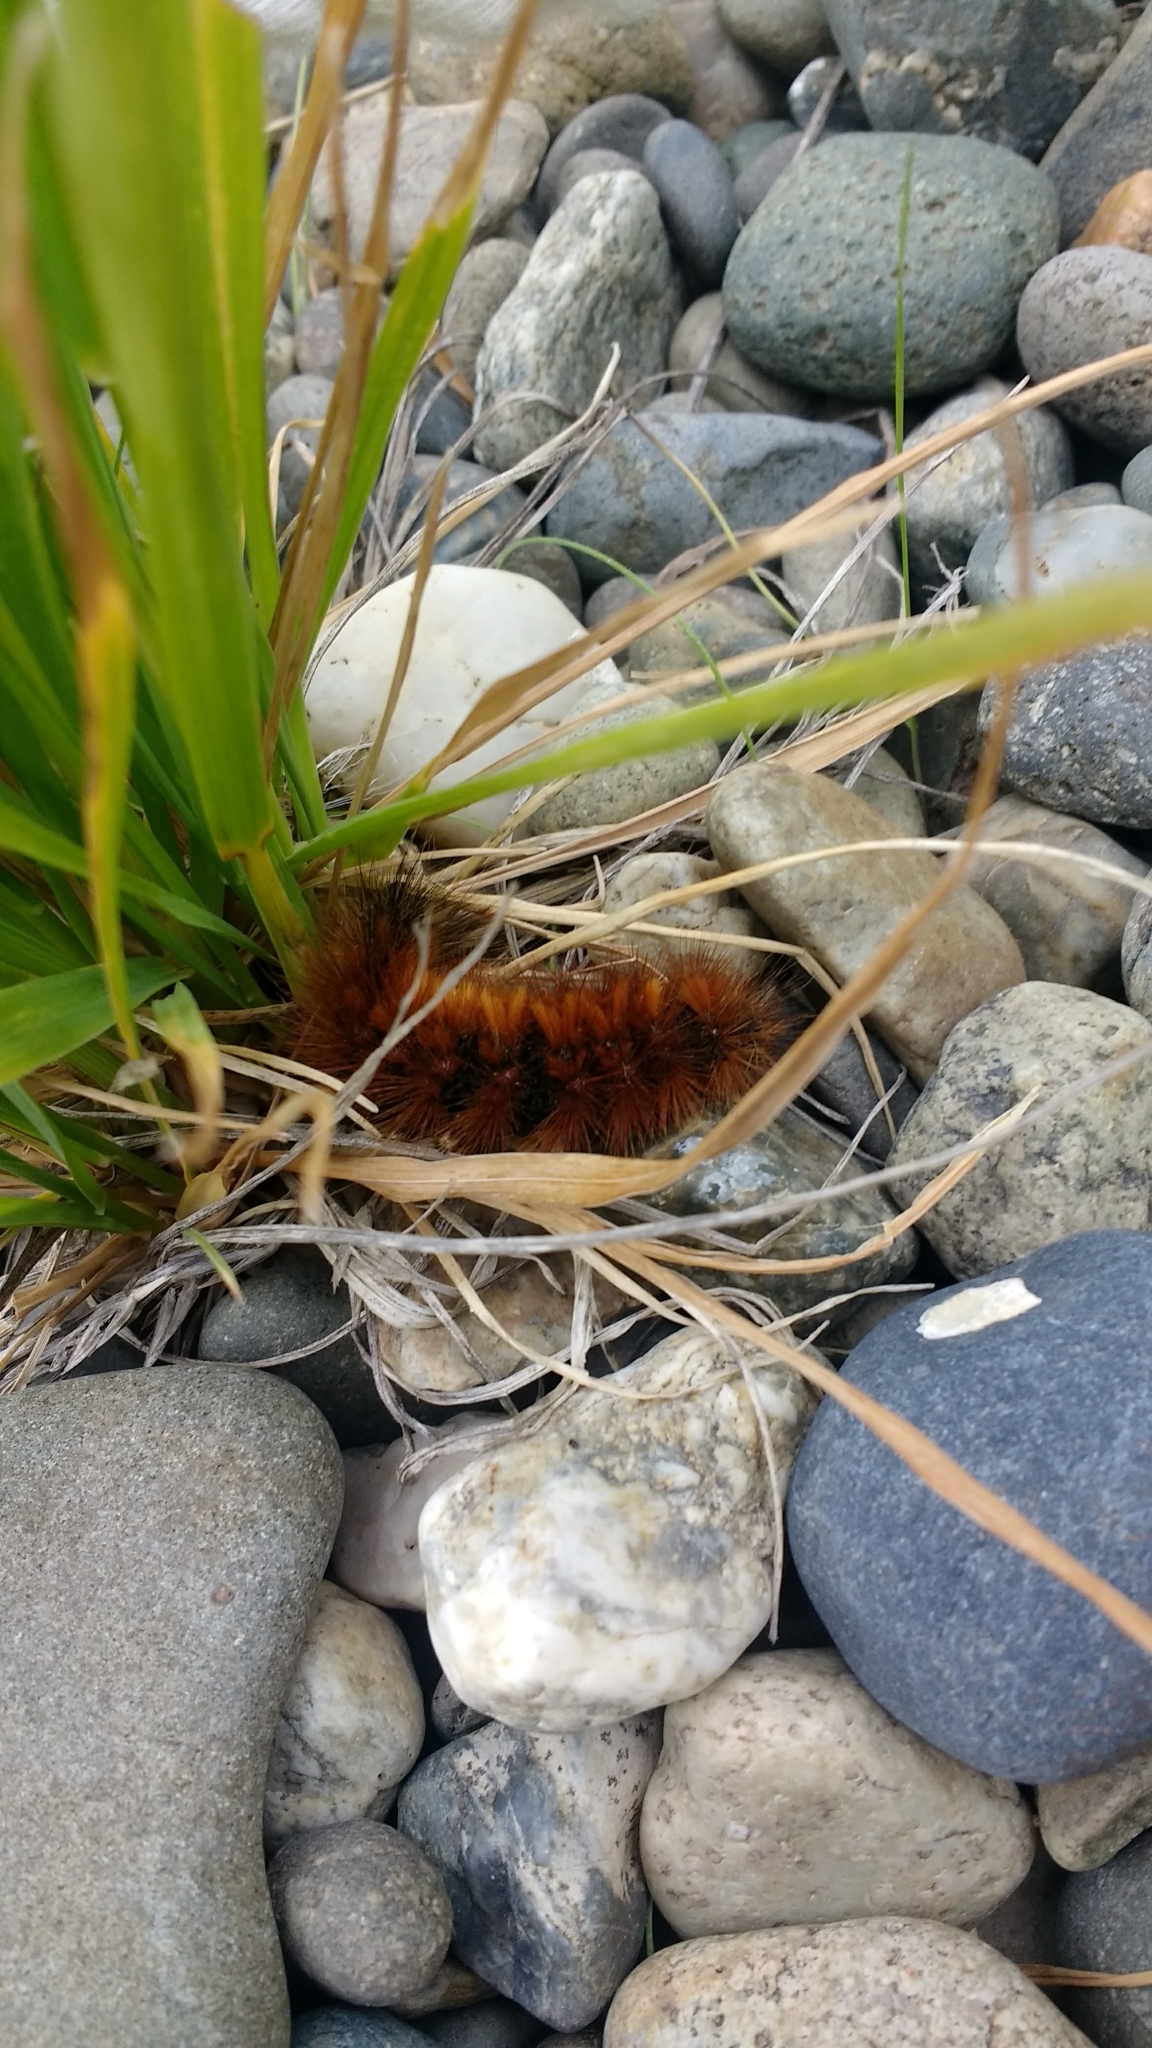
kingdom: Animalia
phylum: Arthropoda
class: Insecta
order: Lepidoptera
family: Erebidae
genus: Paracles
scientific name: Paracles severa
